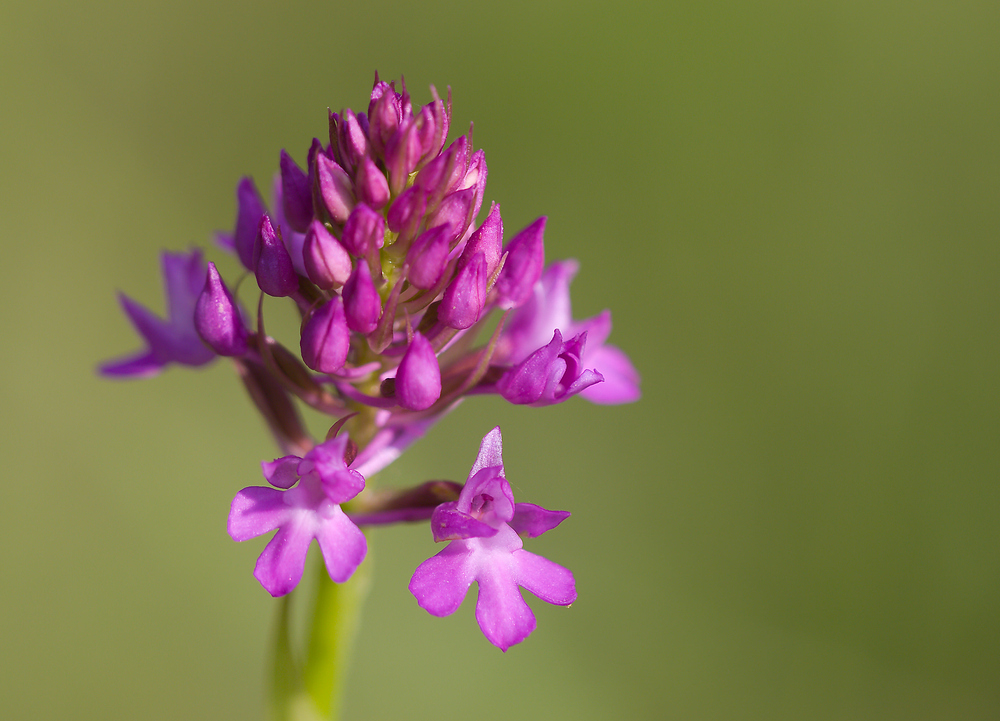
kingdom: Plantae
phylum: Tracheophyta
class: Liliopsida
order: Asparagales
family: Orchidaceae
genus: Anacamptis
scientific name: Anacamptis pyramidalis
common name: Pyramidal orchid
